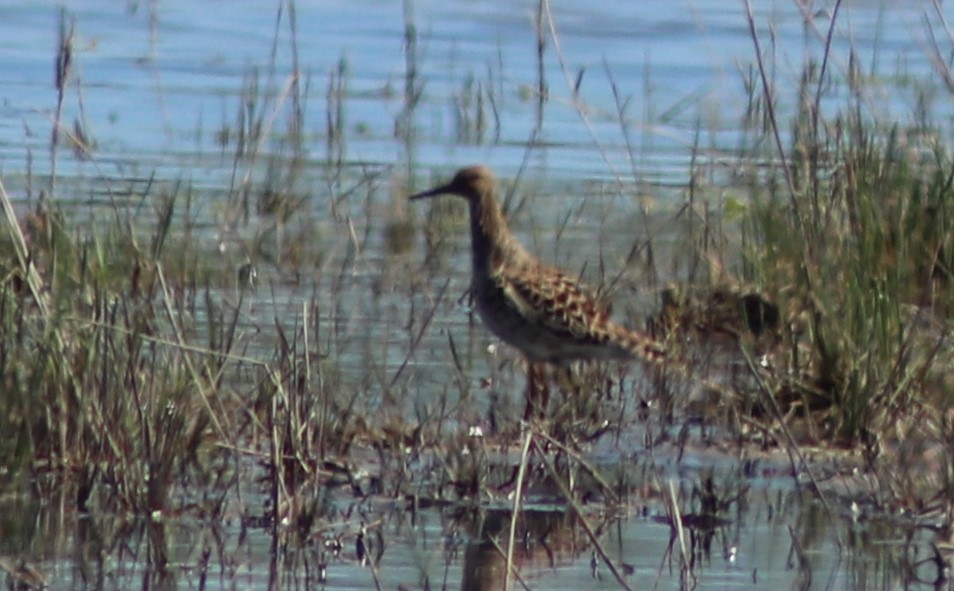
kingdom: Animalia
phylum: Chordata
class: Aves
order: Charadriiformes
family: Scolopacidae
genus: Calidris
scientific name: Calidris pugnax
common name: Ruff
